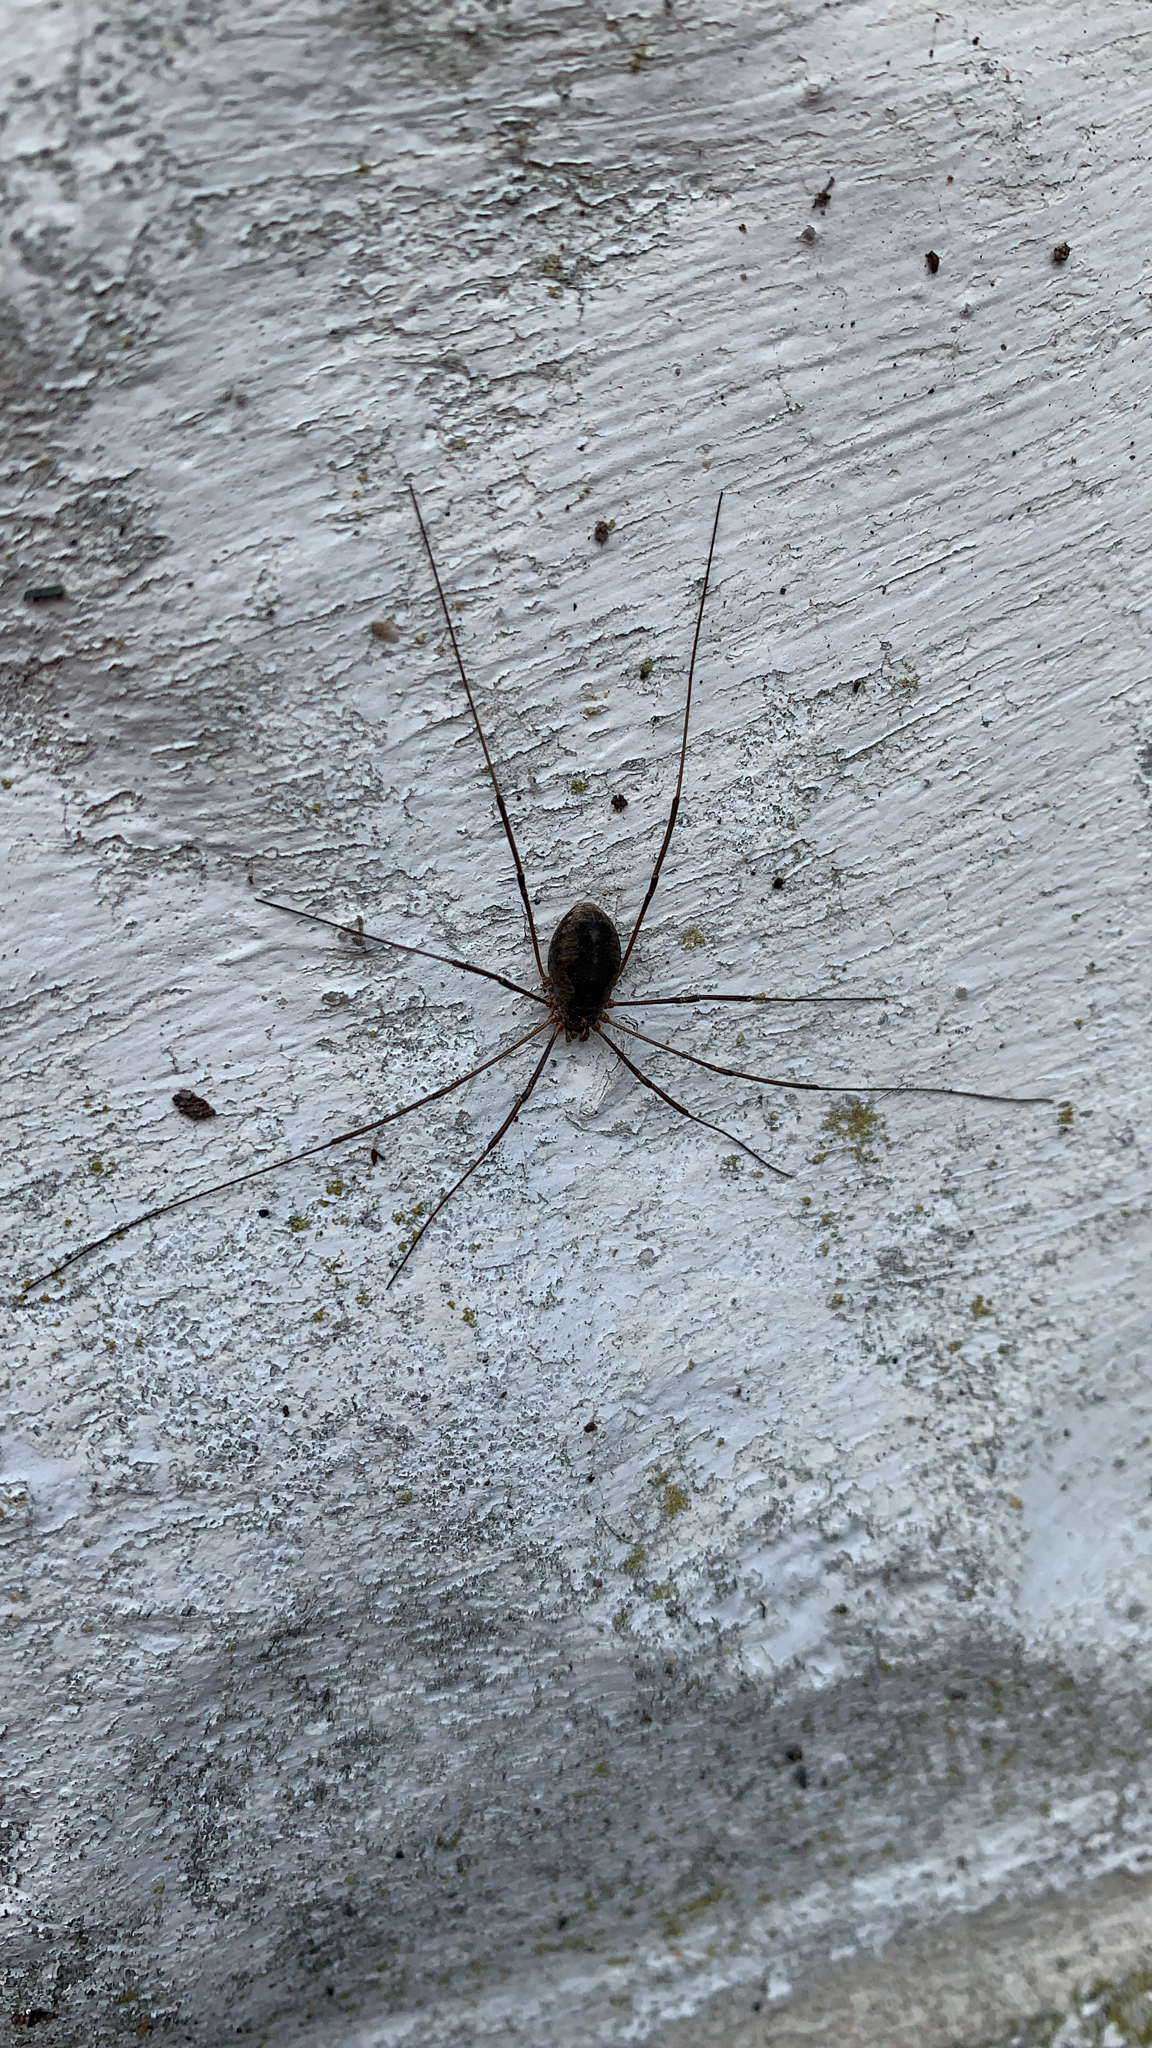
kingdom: Animalia
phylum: Arthropoda
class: Arachnida
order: Opiliones
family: Phalangiidae
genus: Phalangium
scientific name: Phalangium opilio
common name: Daddy longleg
